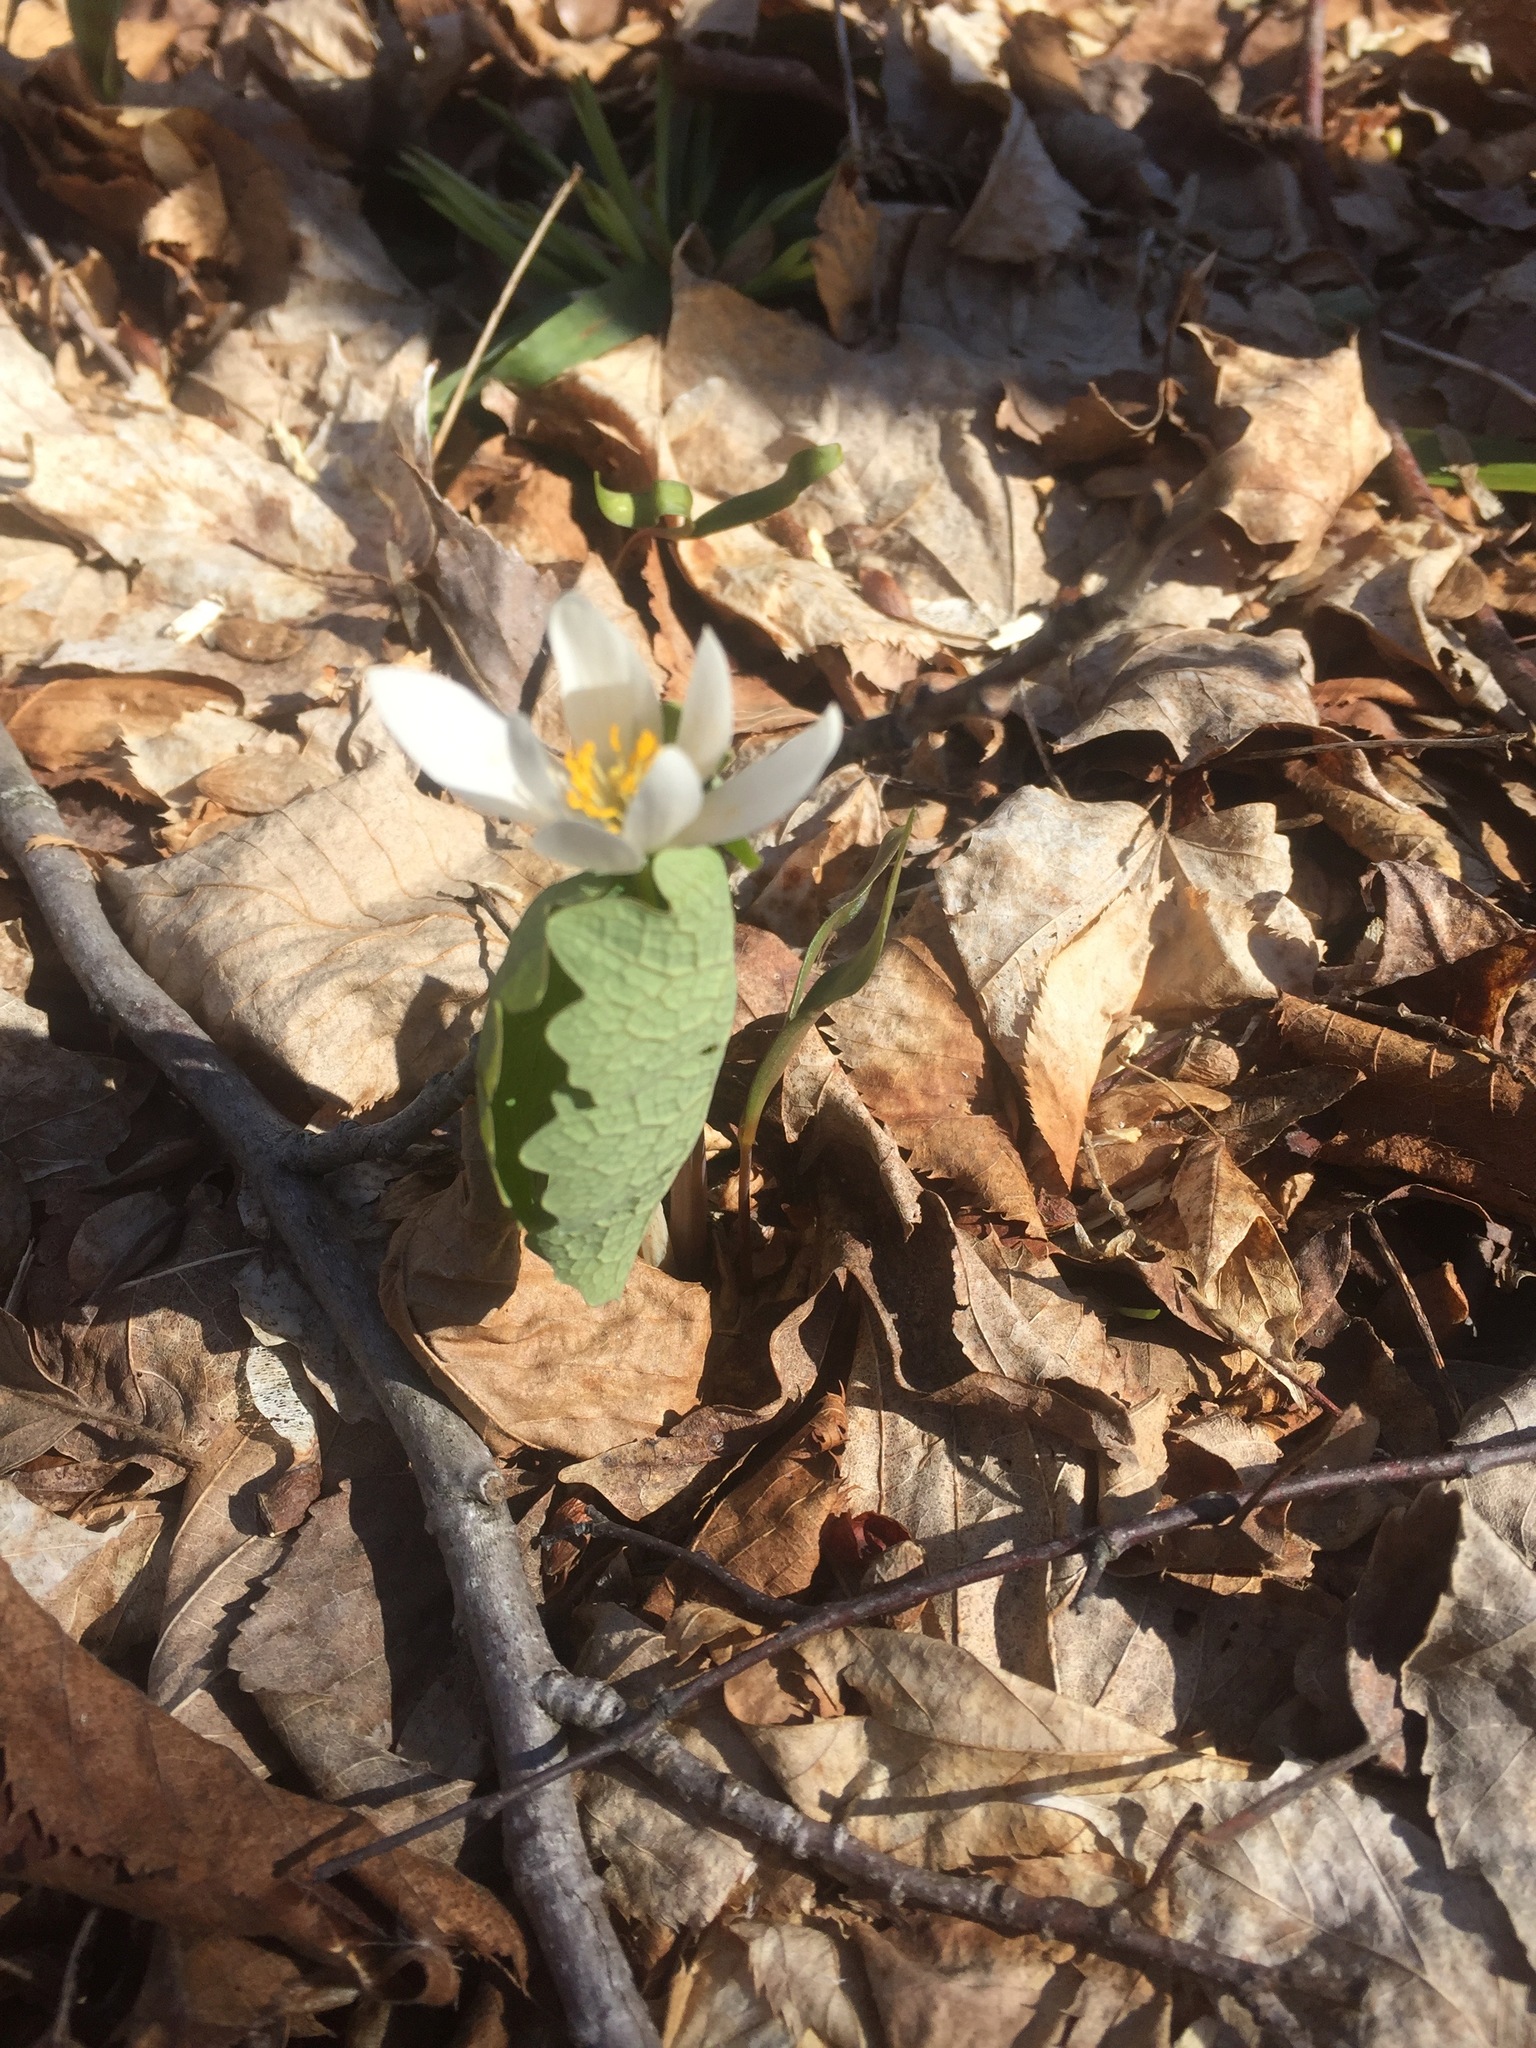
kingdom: Plantae
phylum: Tracheophyta
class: Magnoliopsida
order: Ranunculales
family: Papaveraceae
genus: Sanguinaria
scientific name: Sanguinaria canadensis
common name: Bloodroot
